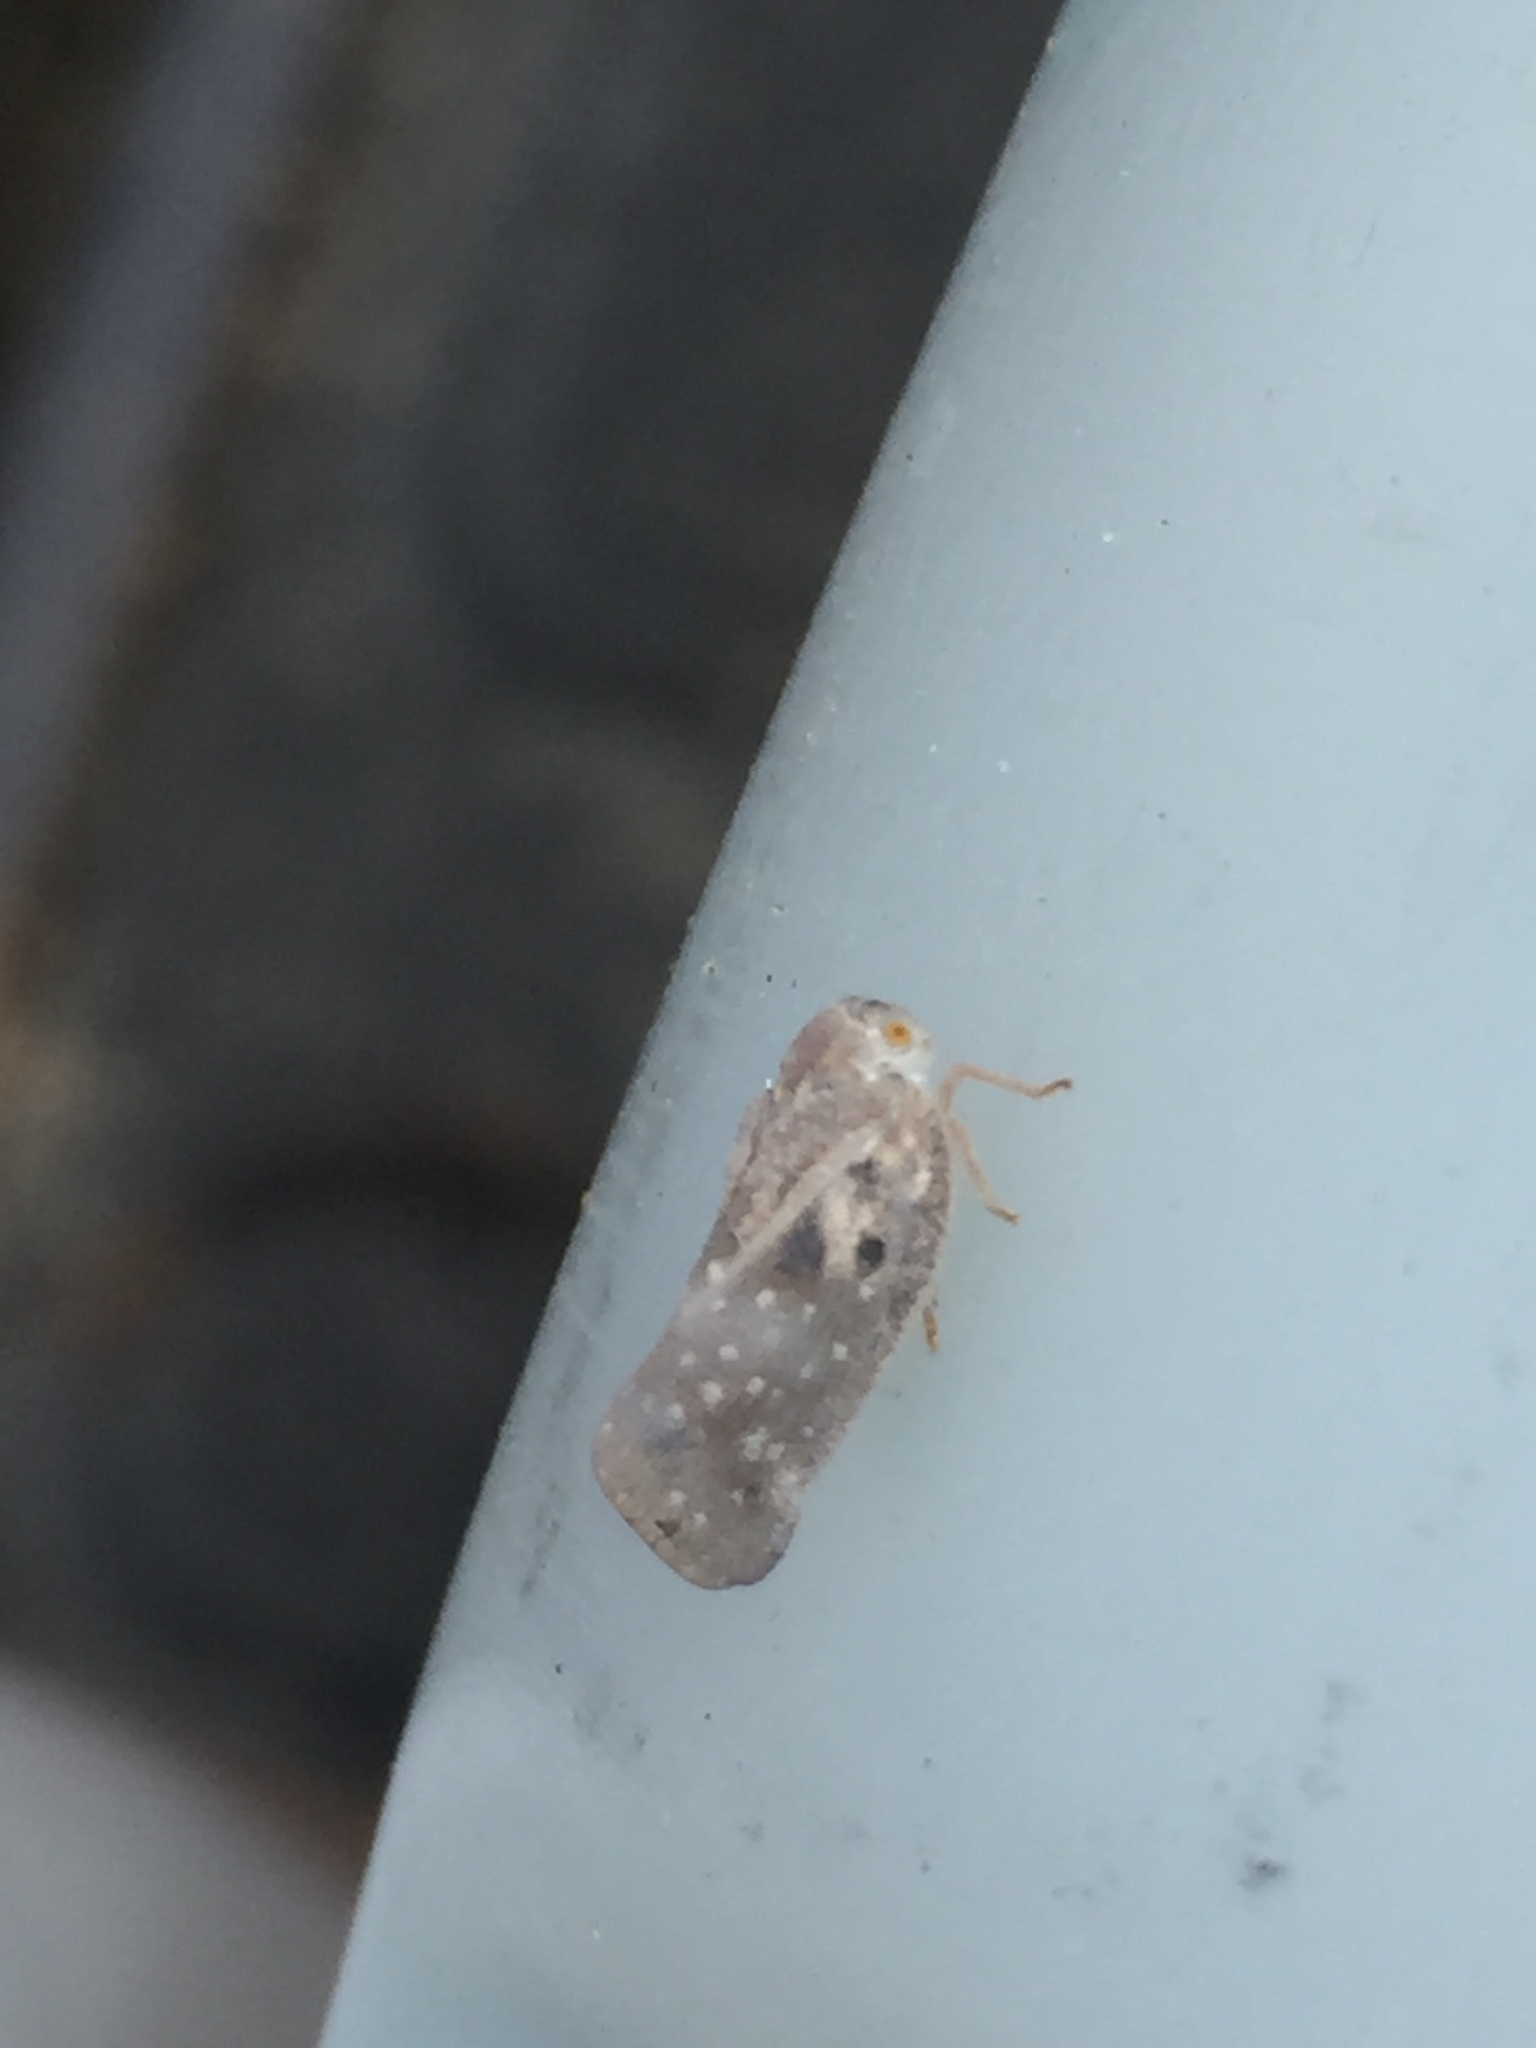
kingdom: Animalia
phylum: Arthropoda
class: Insecta
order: Hemiptera
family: Flatidae
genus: Metcalfa
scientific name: Metcalfa pruinosa
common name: Citrus flatid planthopper
